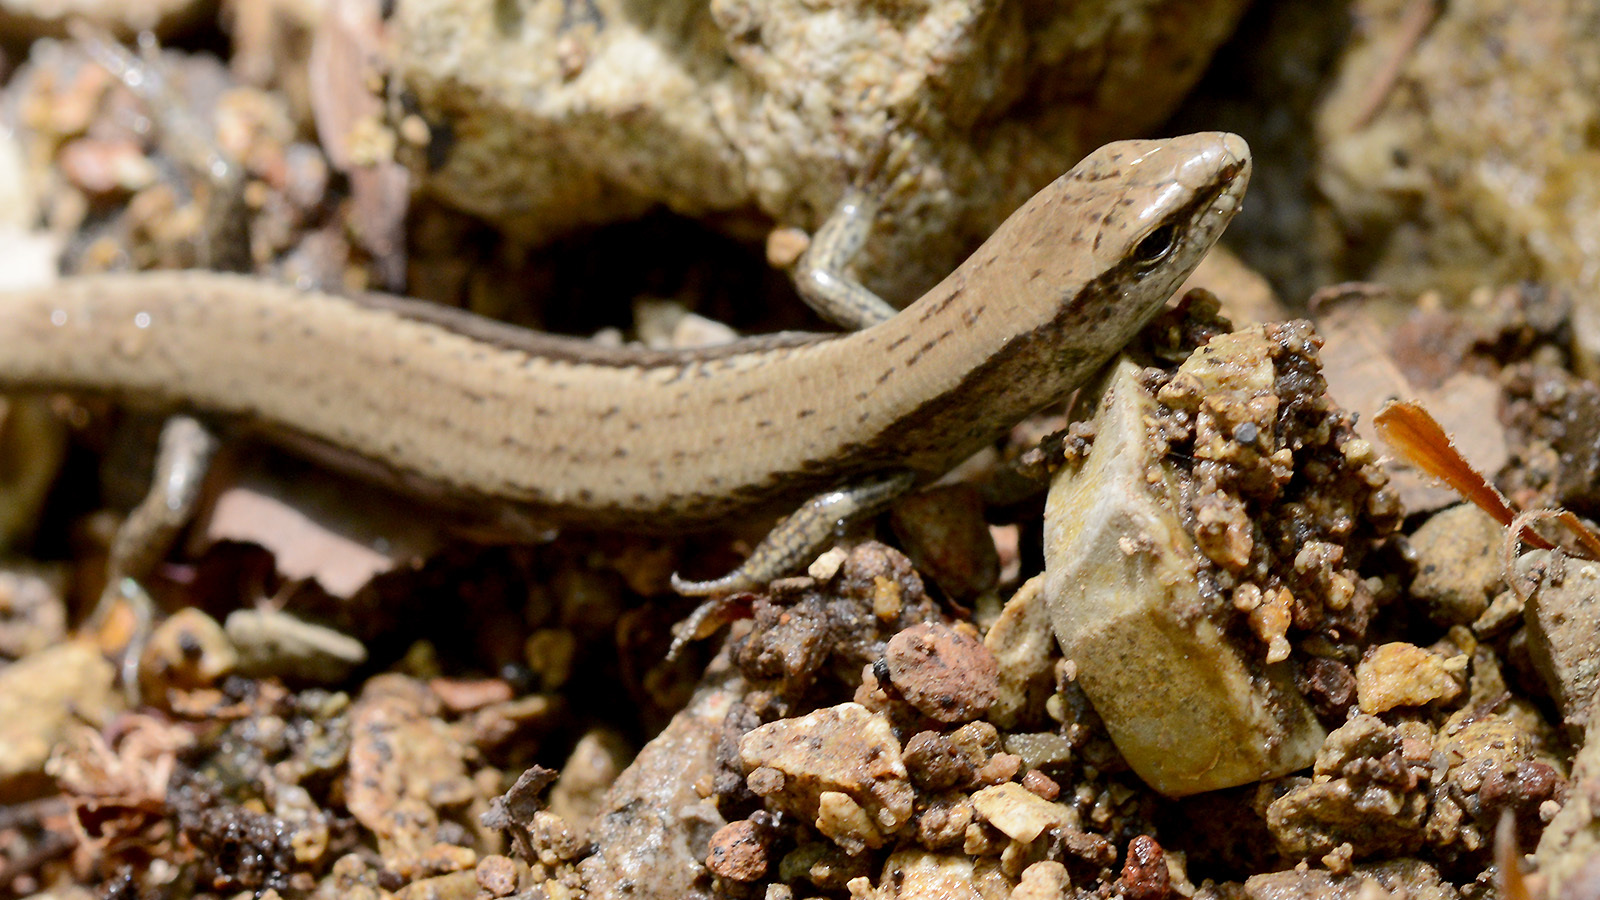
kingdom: Animalia
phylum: Chordata
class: Squamata
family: Scincidae
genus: Scincella
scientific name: Scincella vandenburghi
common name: Tsushima smooth skink
